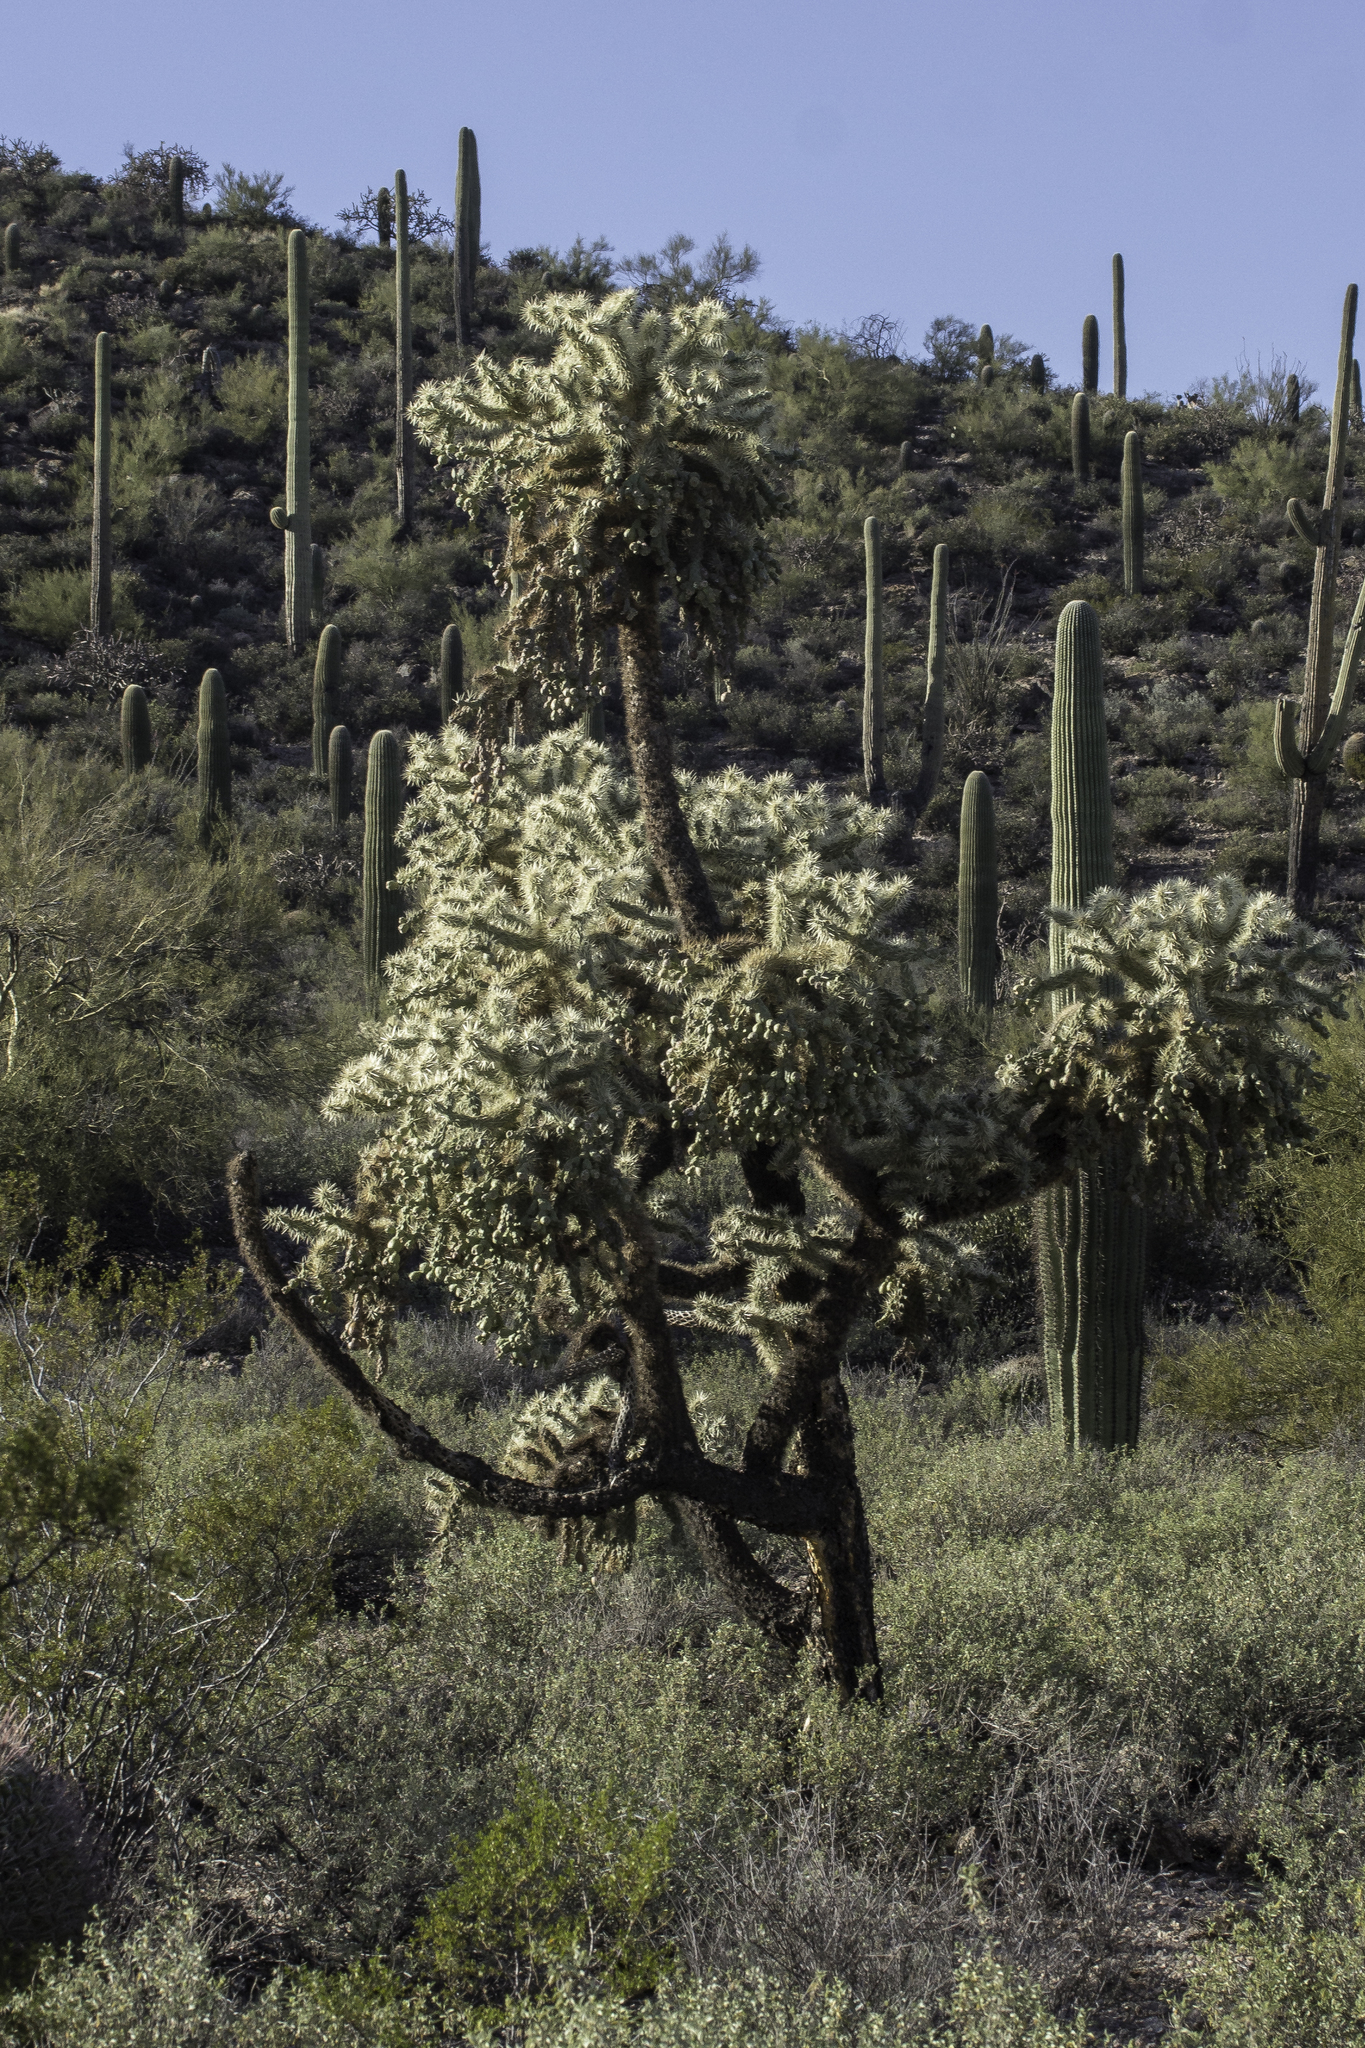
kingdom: Plantae
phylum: Tracheophyta
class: Magnoliopsida
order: Caryophyllales
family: Cactaceae
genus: Cylindropuntia
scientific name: Cylindropuntia fulgida
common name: Jumping cholla
